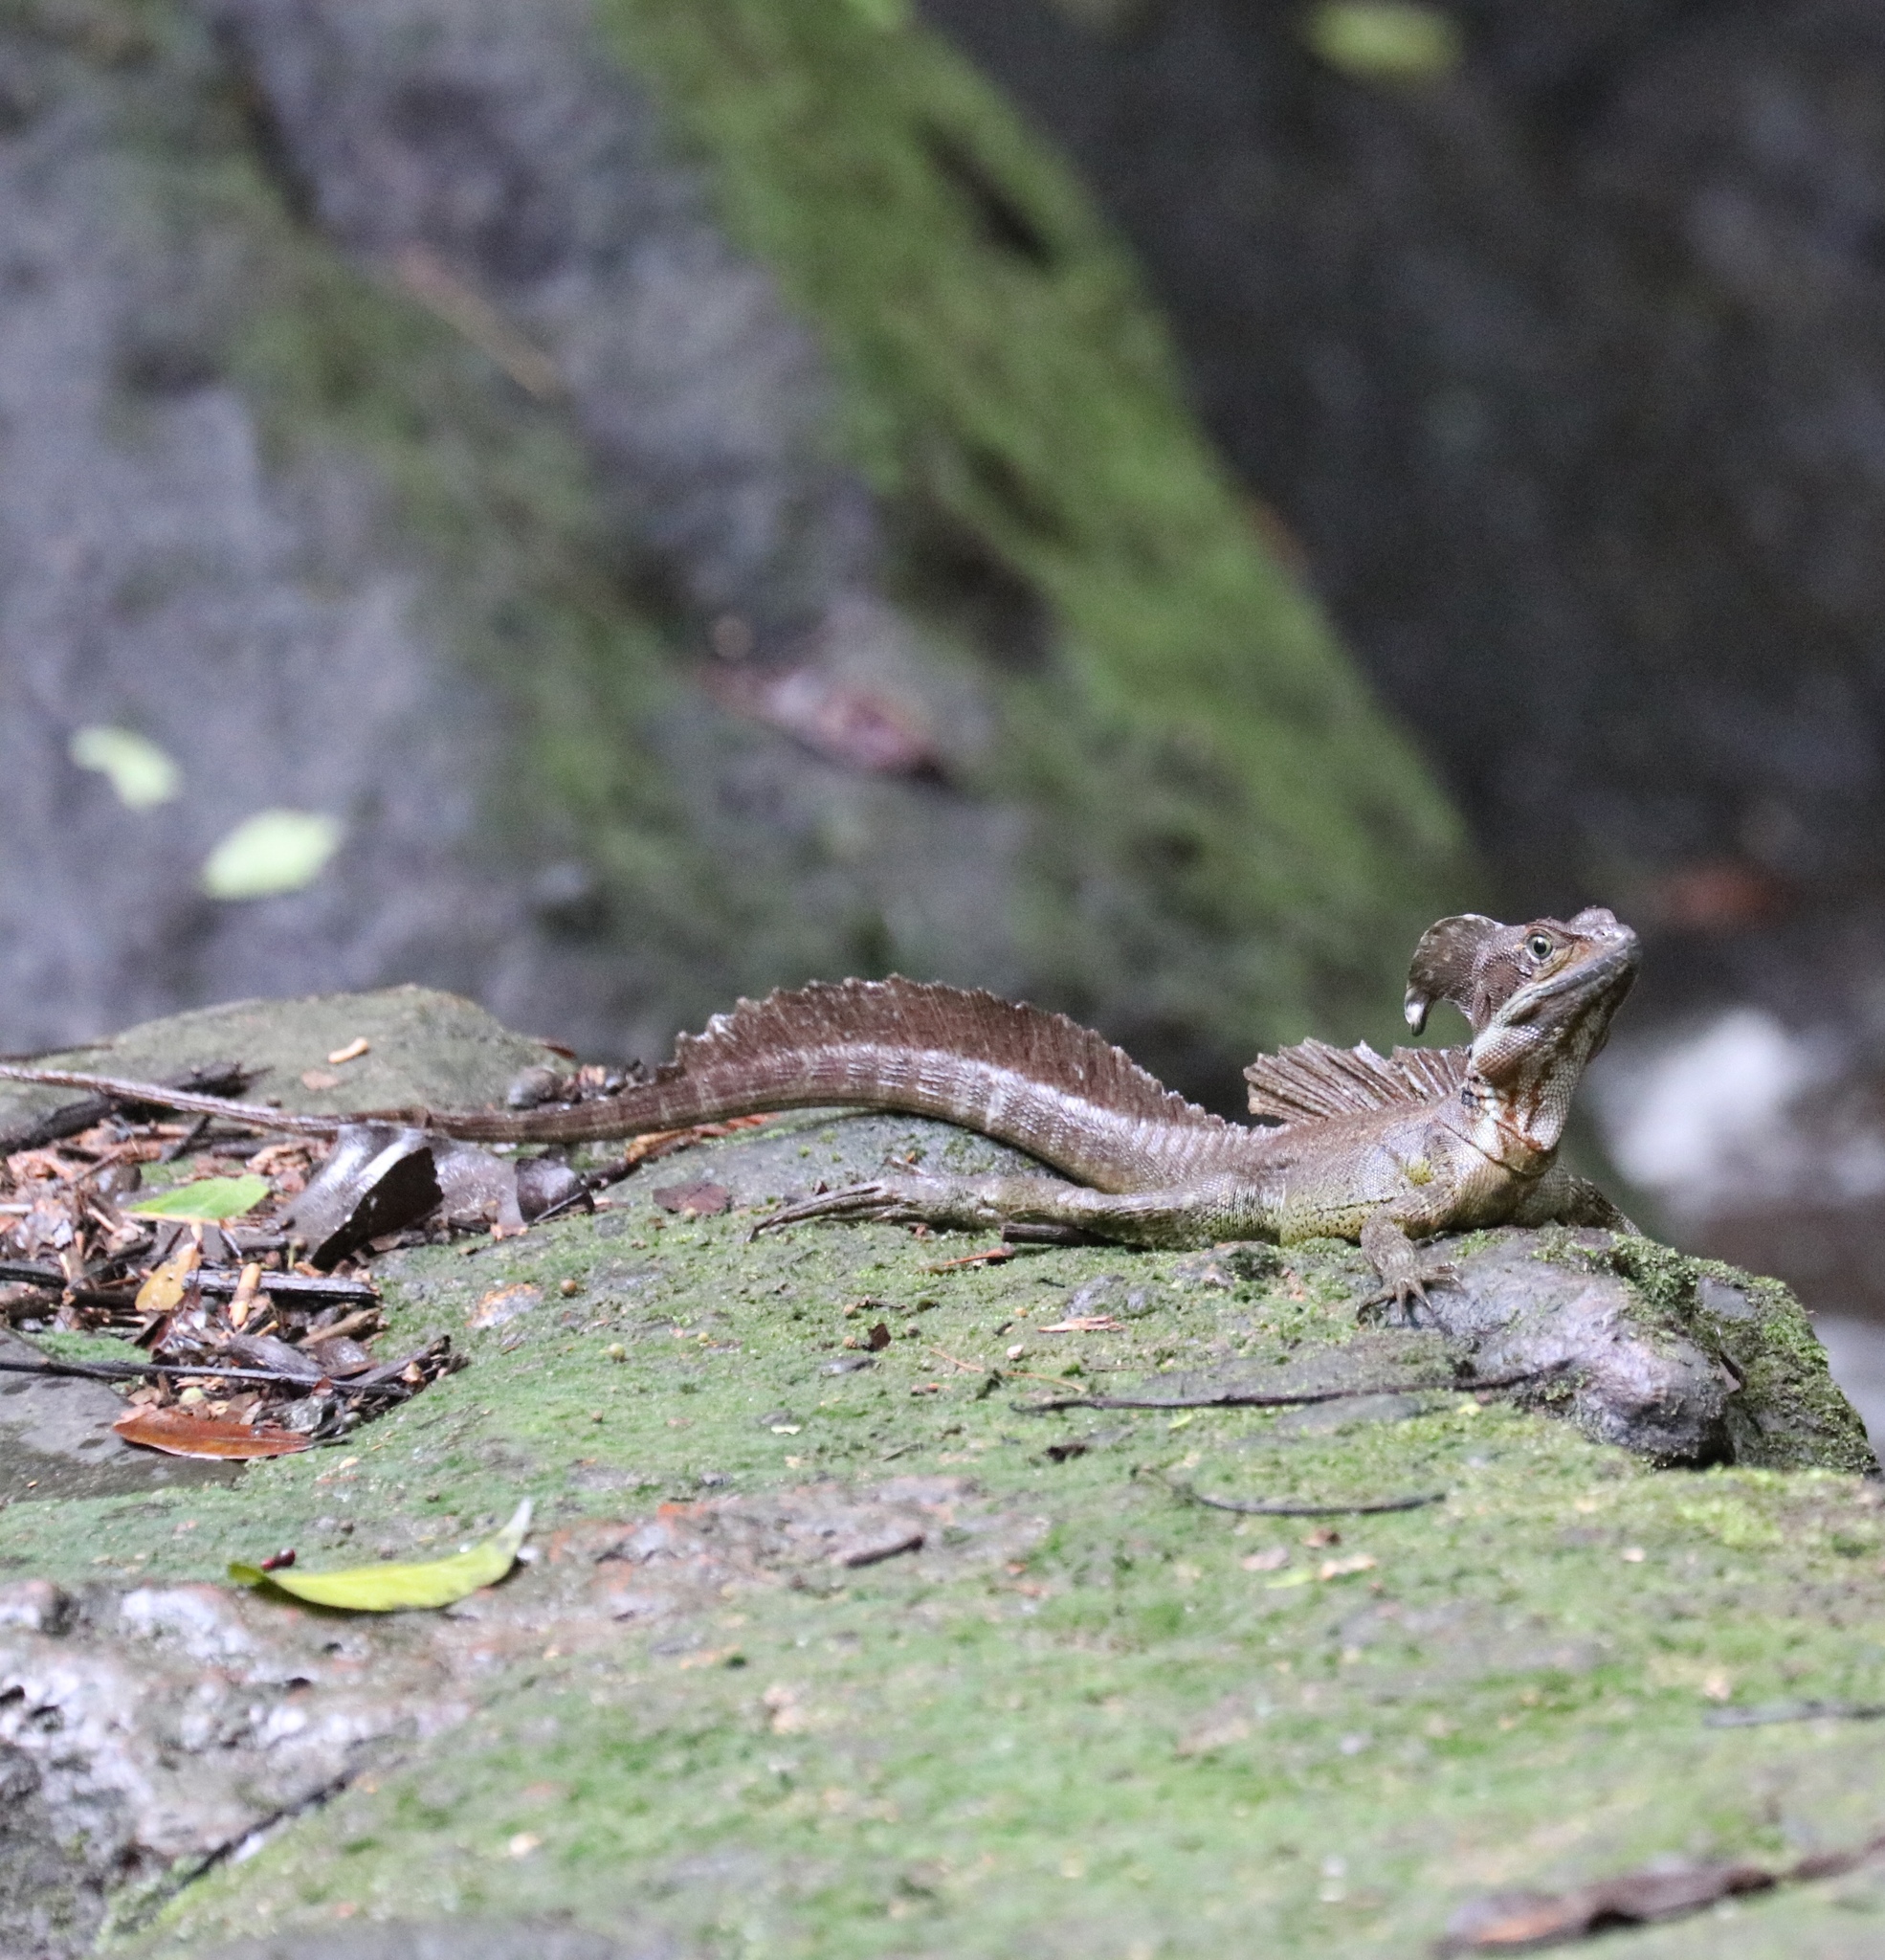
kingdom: Animalia
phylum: Chordata
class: Squamata
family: Corytophanidae
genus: Basiliscus
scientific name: Basiliscus basiliscus
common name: Common basilisk
